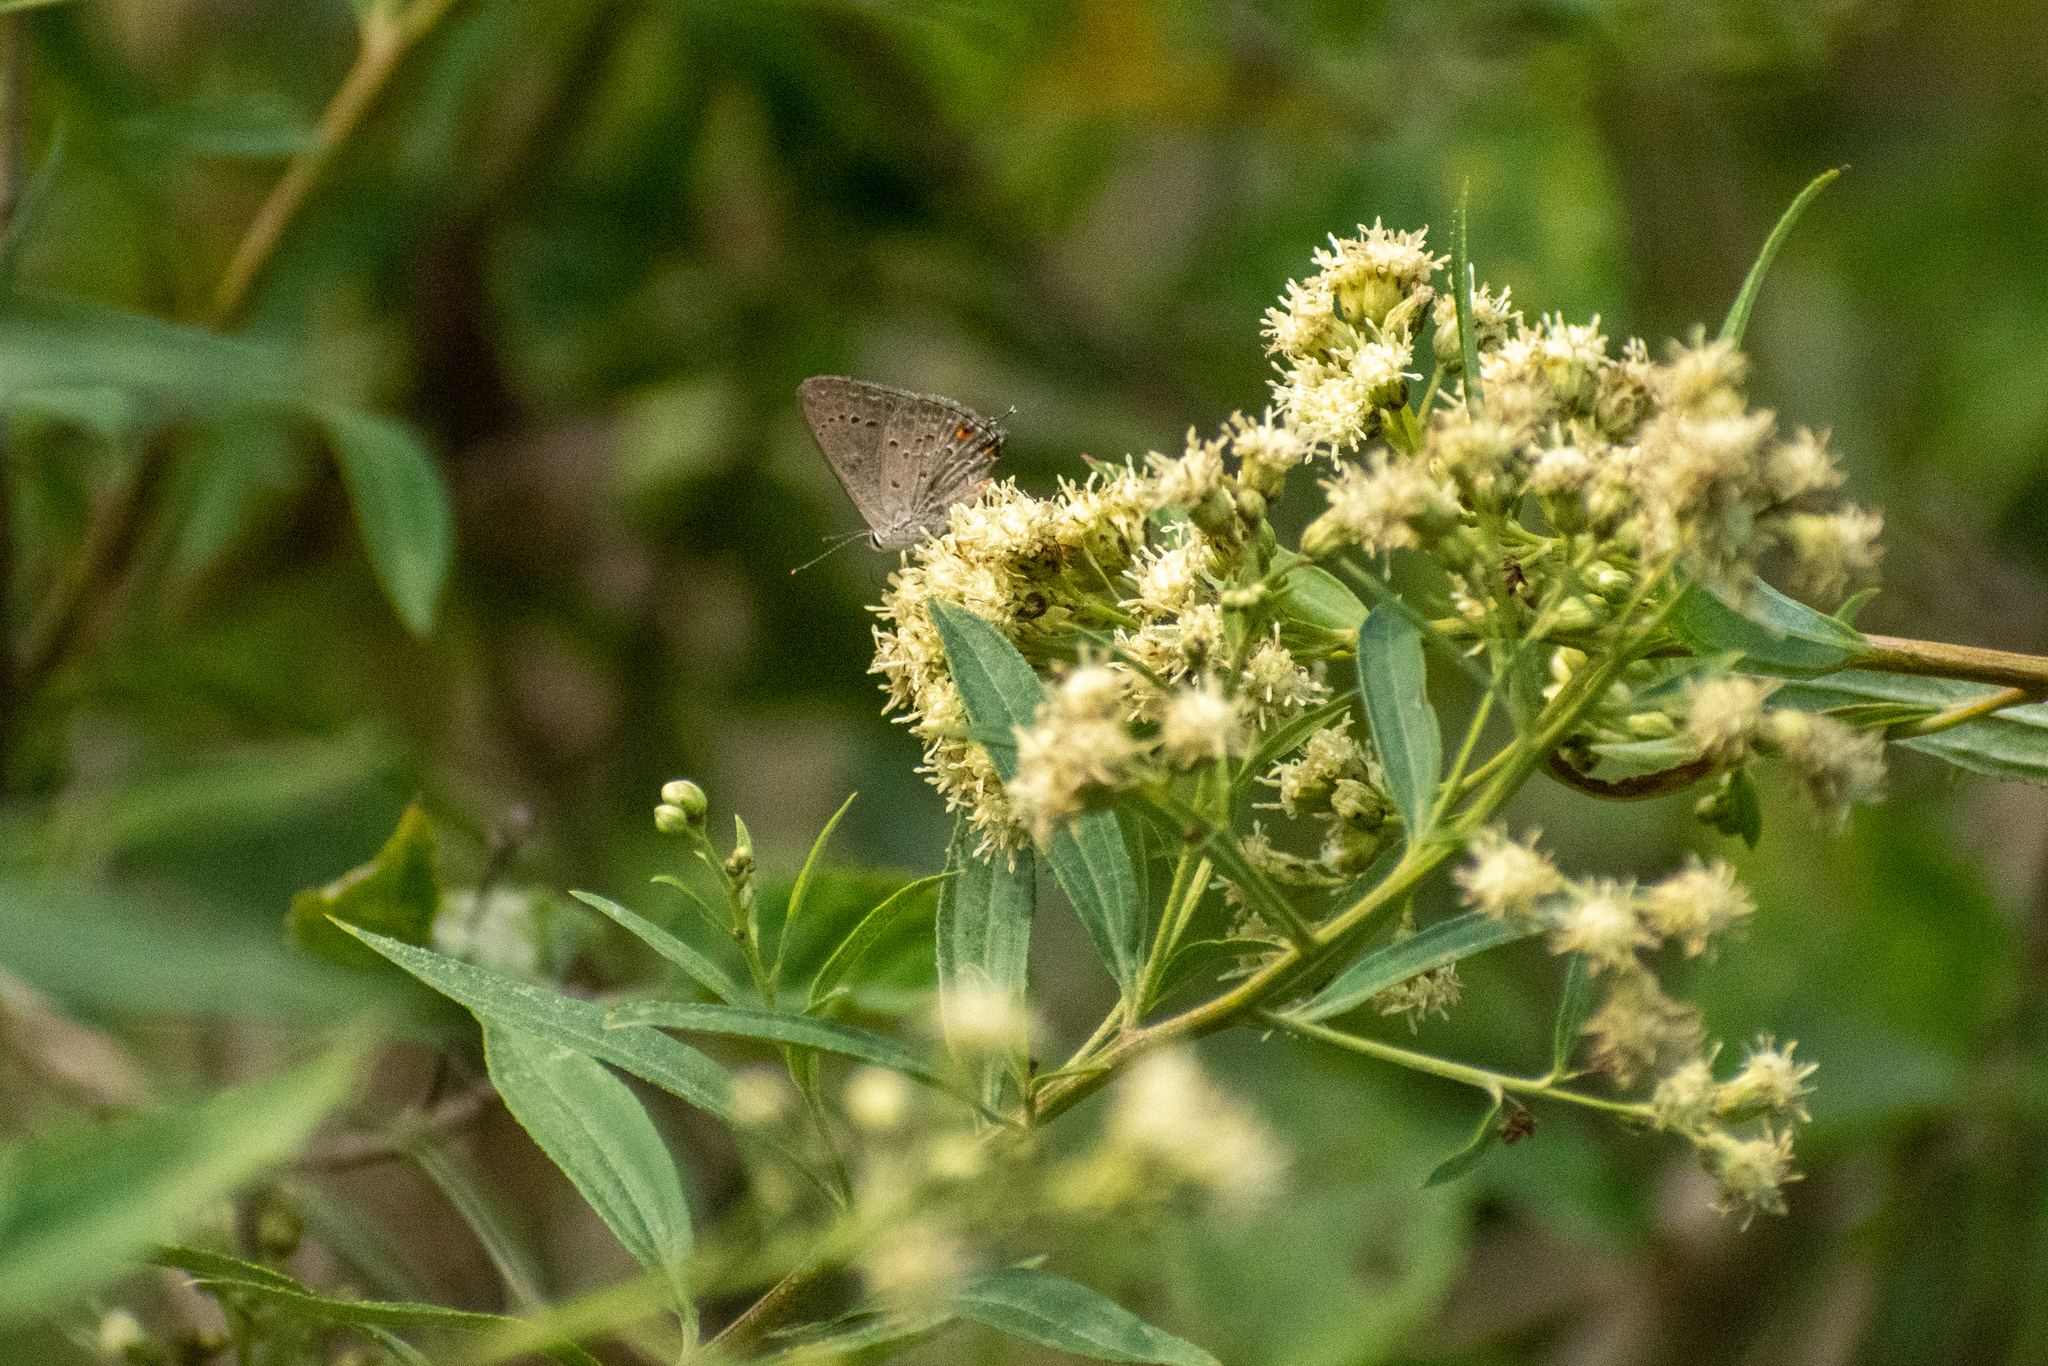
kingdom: Animalia
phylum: Arthropoda
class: Insecta
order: Lepidoptera
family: Lycaenidae
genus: Strymon
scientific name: Strymon eurytulus
